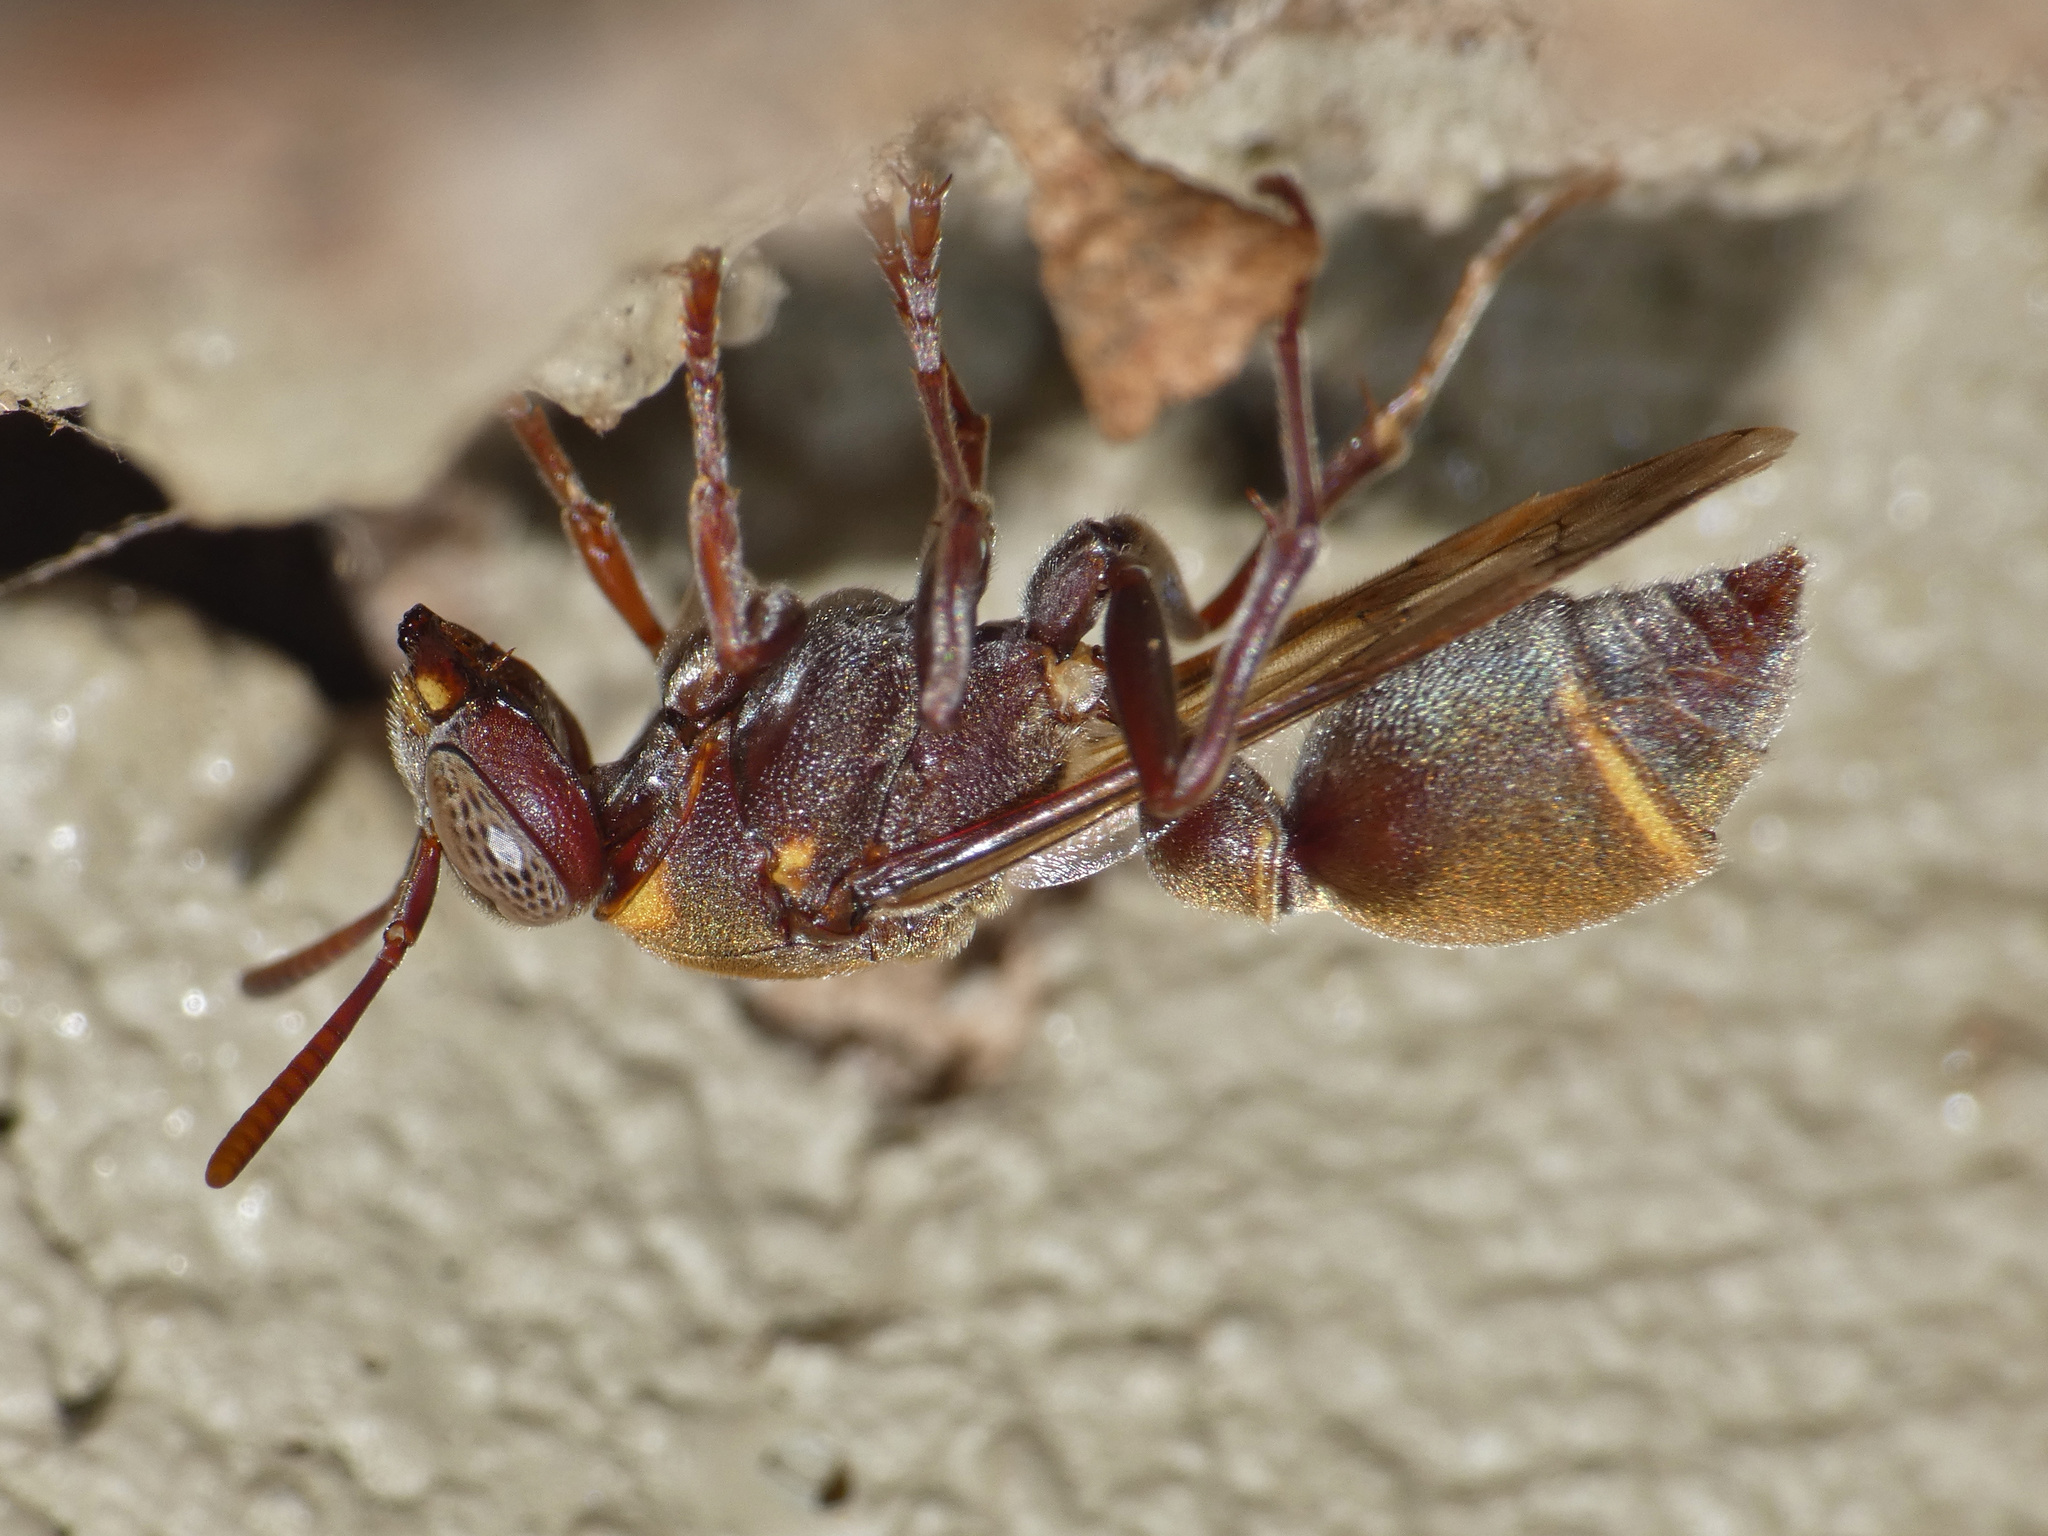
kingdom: Animalia
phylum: Arthropoda
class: Insecta
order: Hymenoptera
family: Vespidae
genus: Ropalidia
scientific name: Ropalidia guttatipennis
